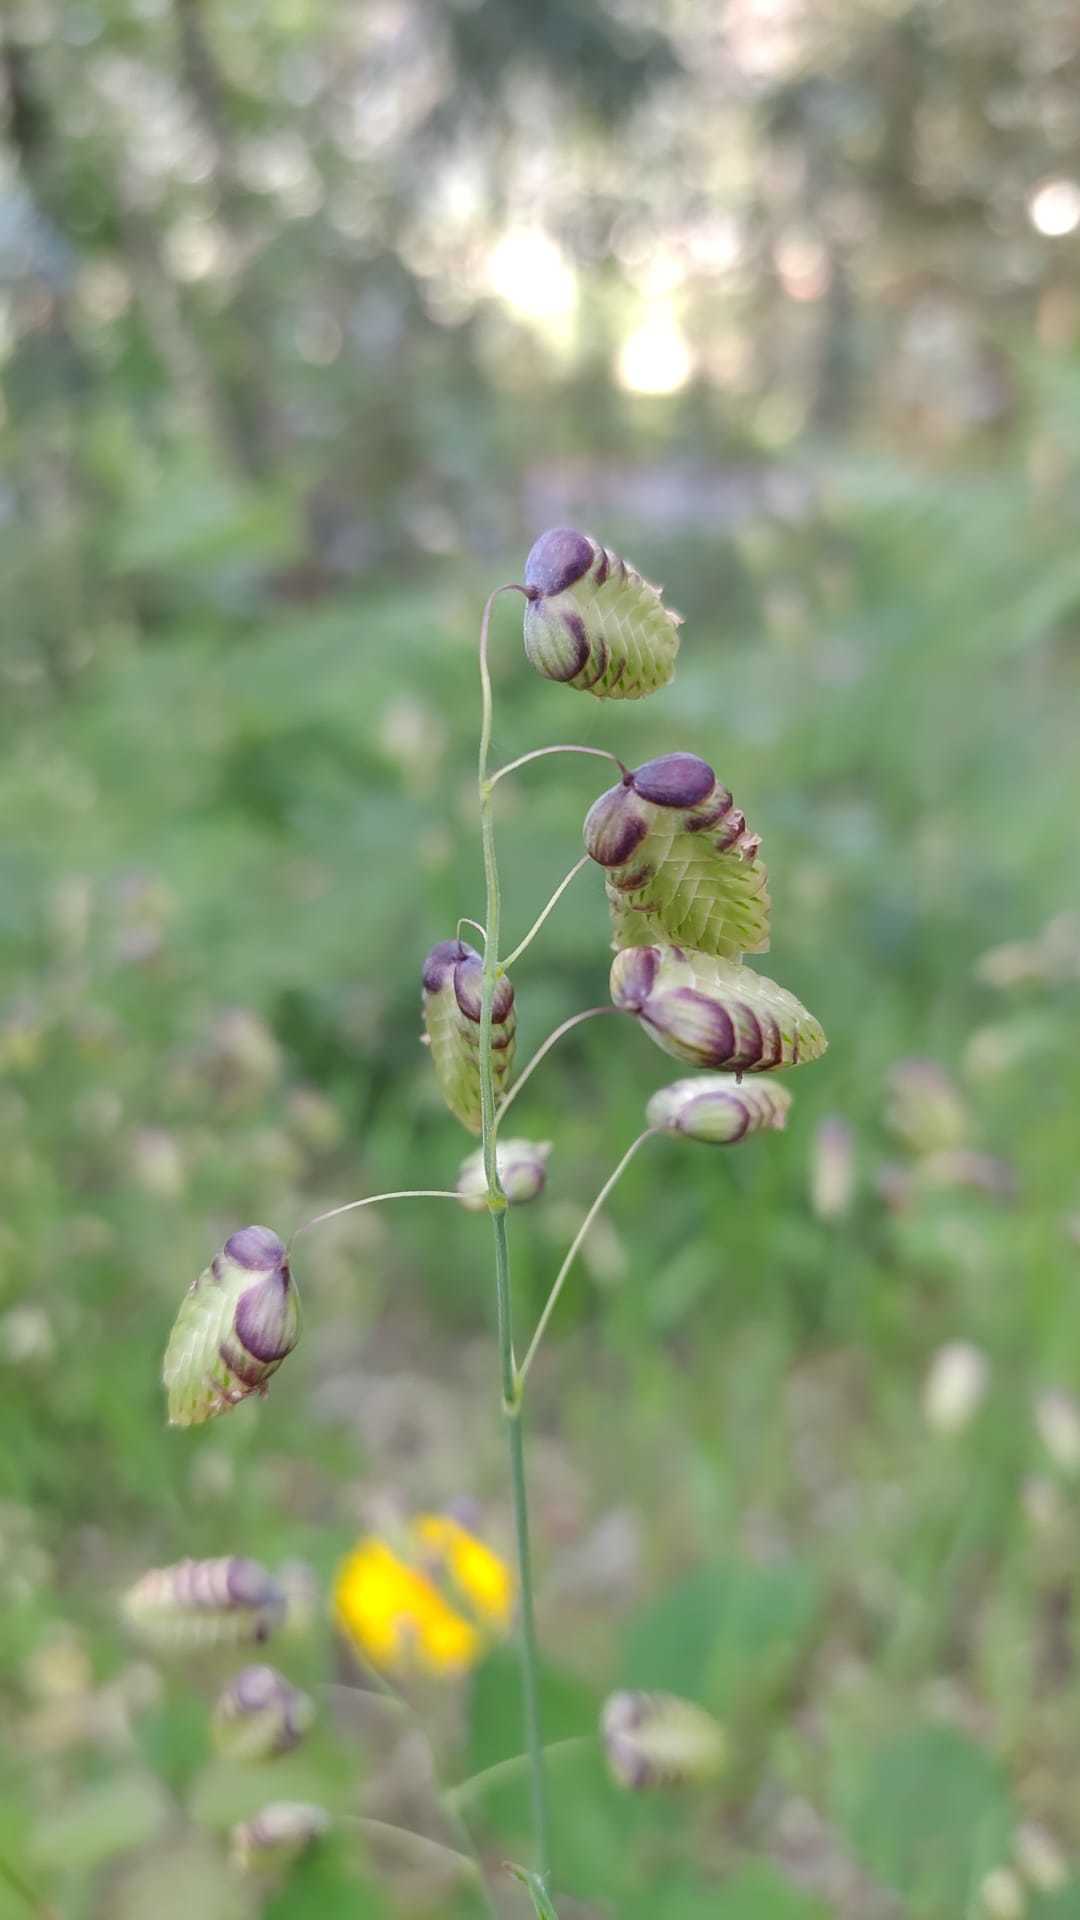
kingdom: Plantae
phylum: Tracheophyta
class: Liliopsida
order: Poales
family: Poaceae
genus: Briza
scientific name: Briza maxima
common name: Big quakinggrass
